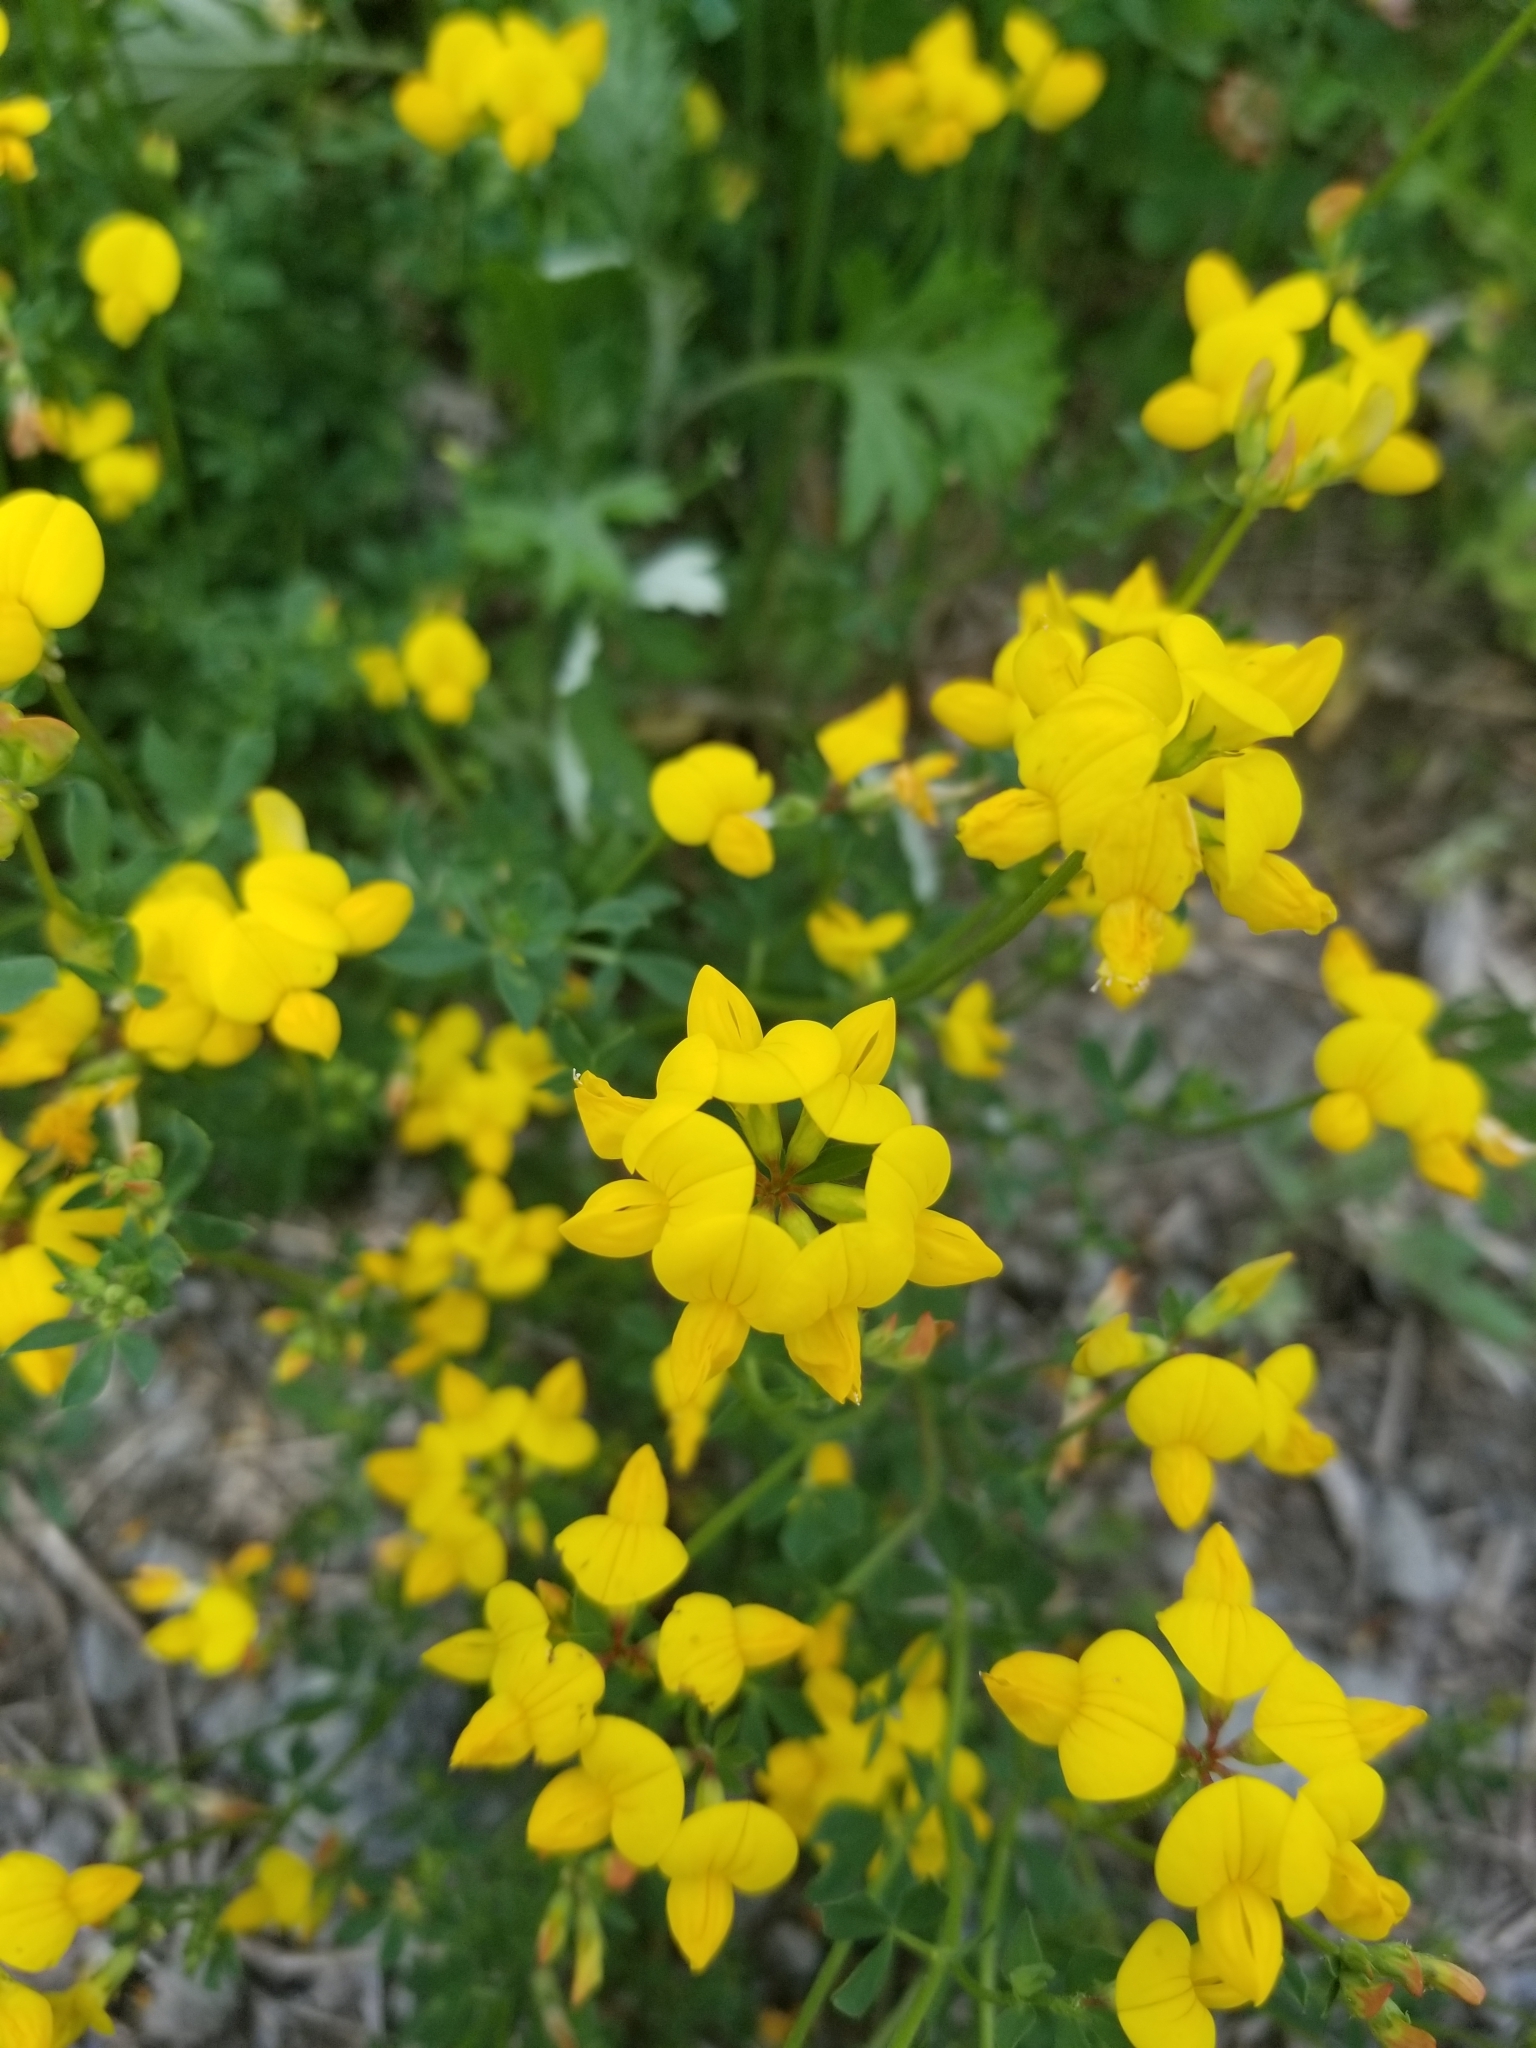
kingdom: Plantae
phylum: Tracheophyta
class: Magnoliopsida
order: Fabales
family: Fabaceae
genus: Lotus
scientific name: Lotus corniculatus
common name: Common bird's-foot-trefoil
